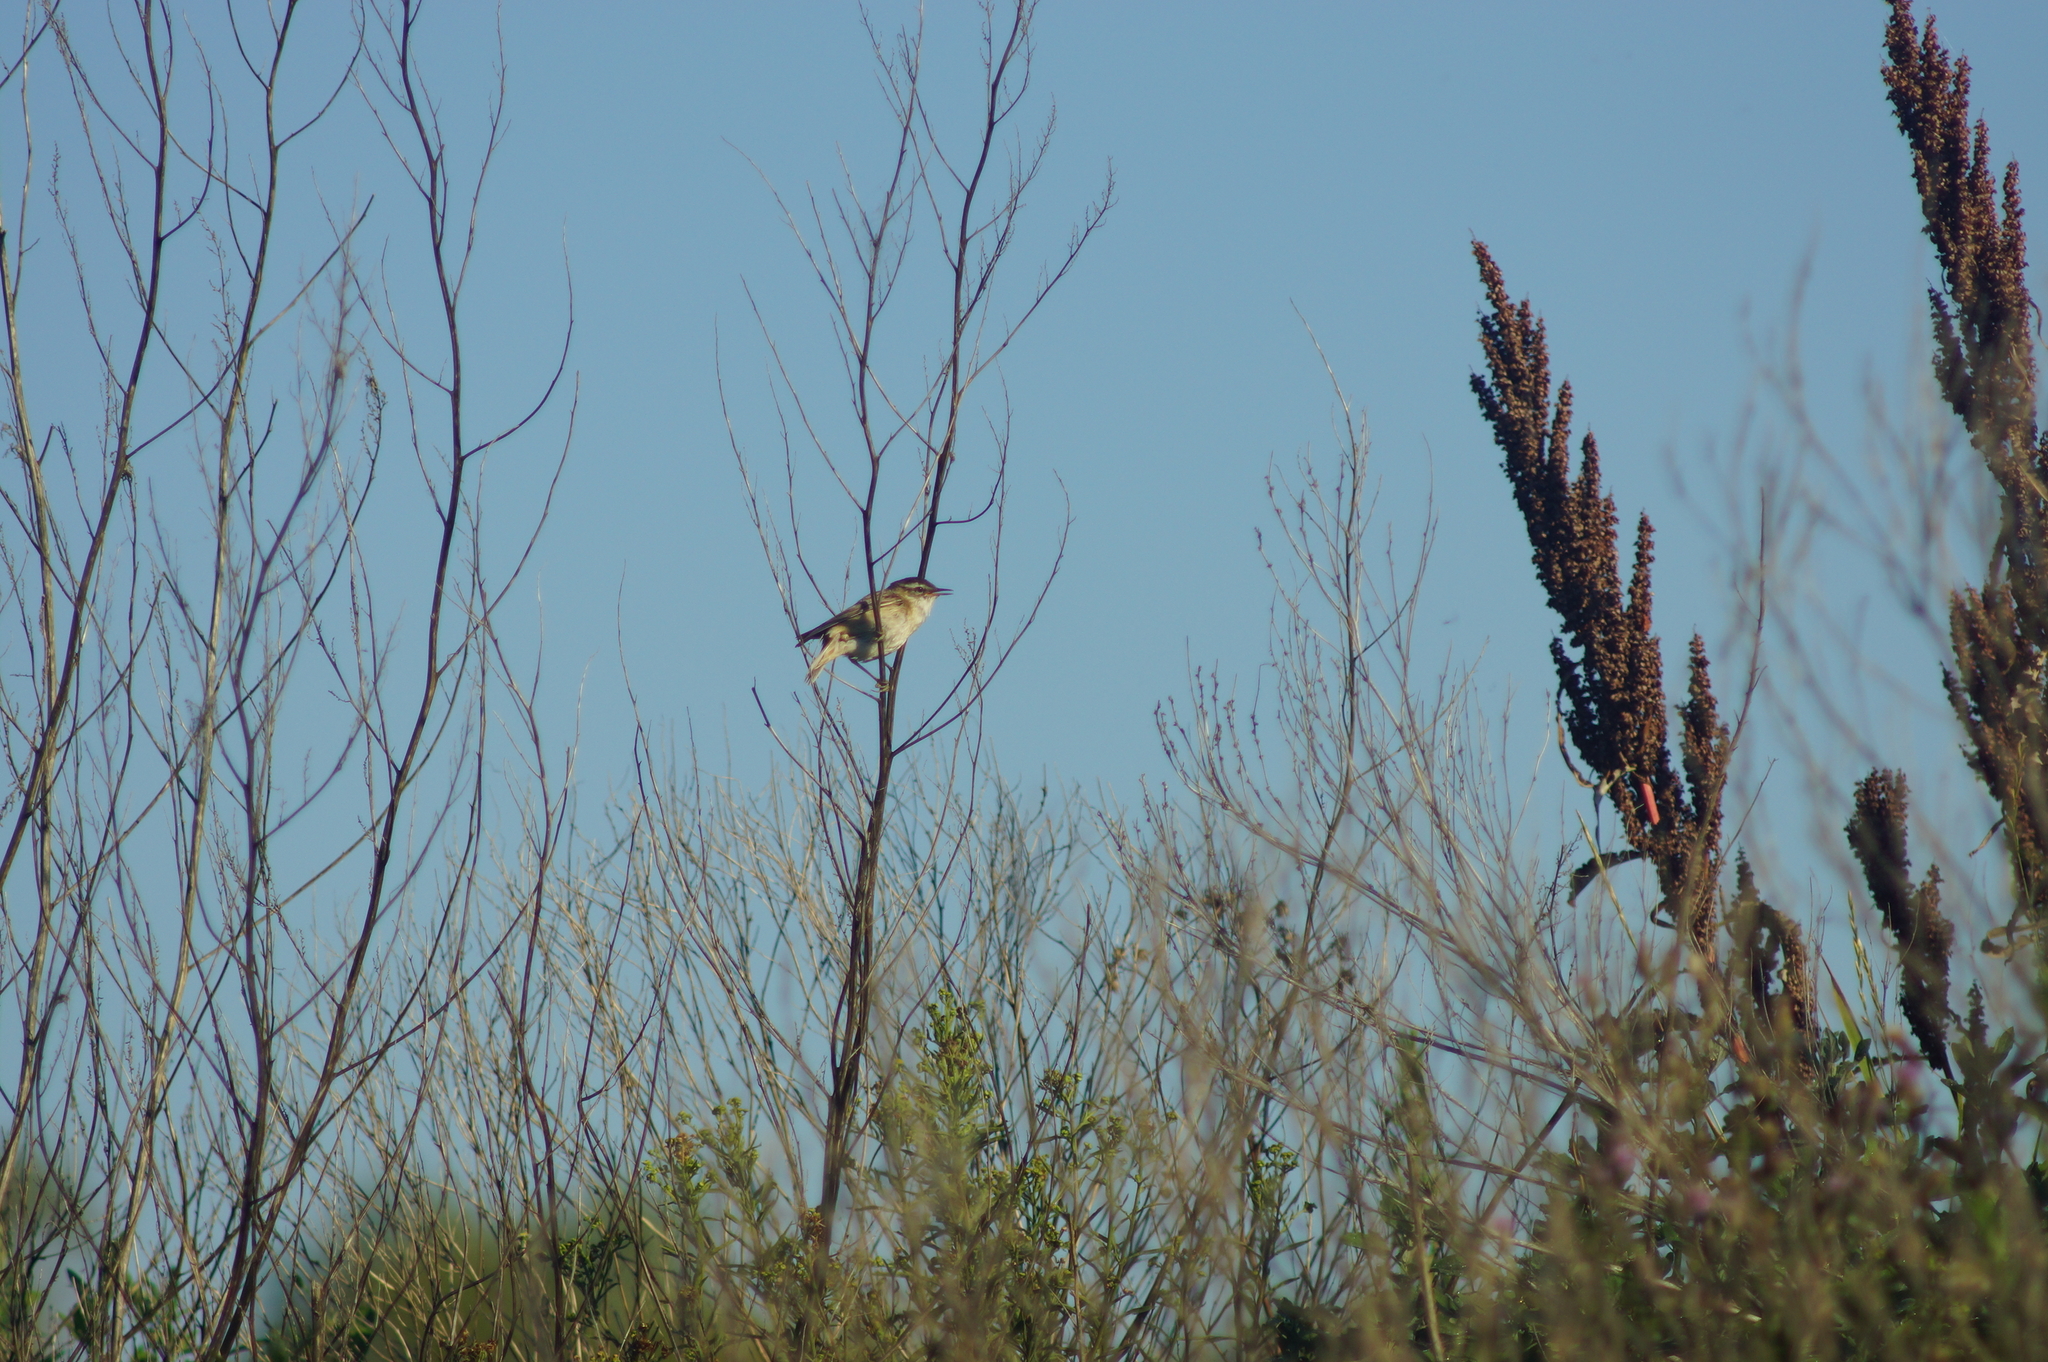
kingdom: Animalia
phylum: Chordata
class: Aves
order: Passeriformes
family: Acrocephalidae
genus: Acrocephalus
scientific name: Acrocephalus schoenobaenus
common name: Sedge warbler
